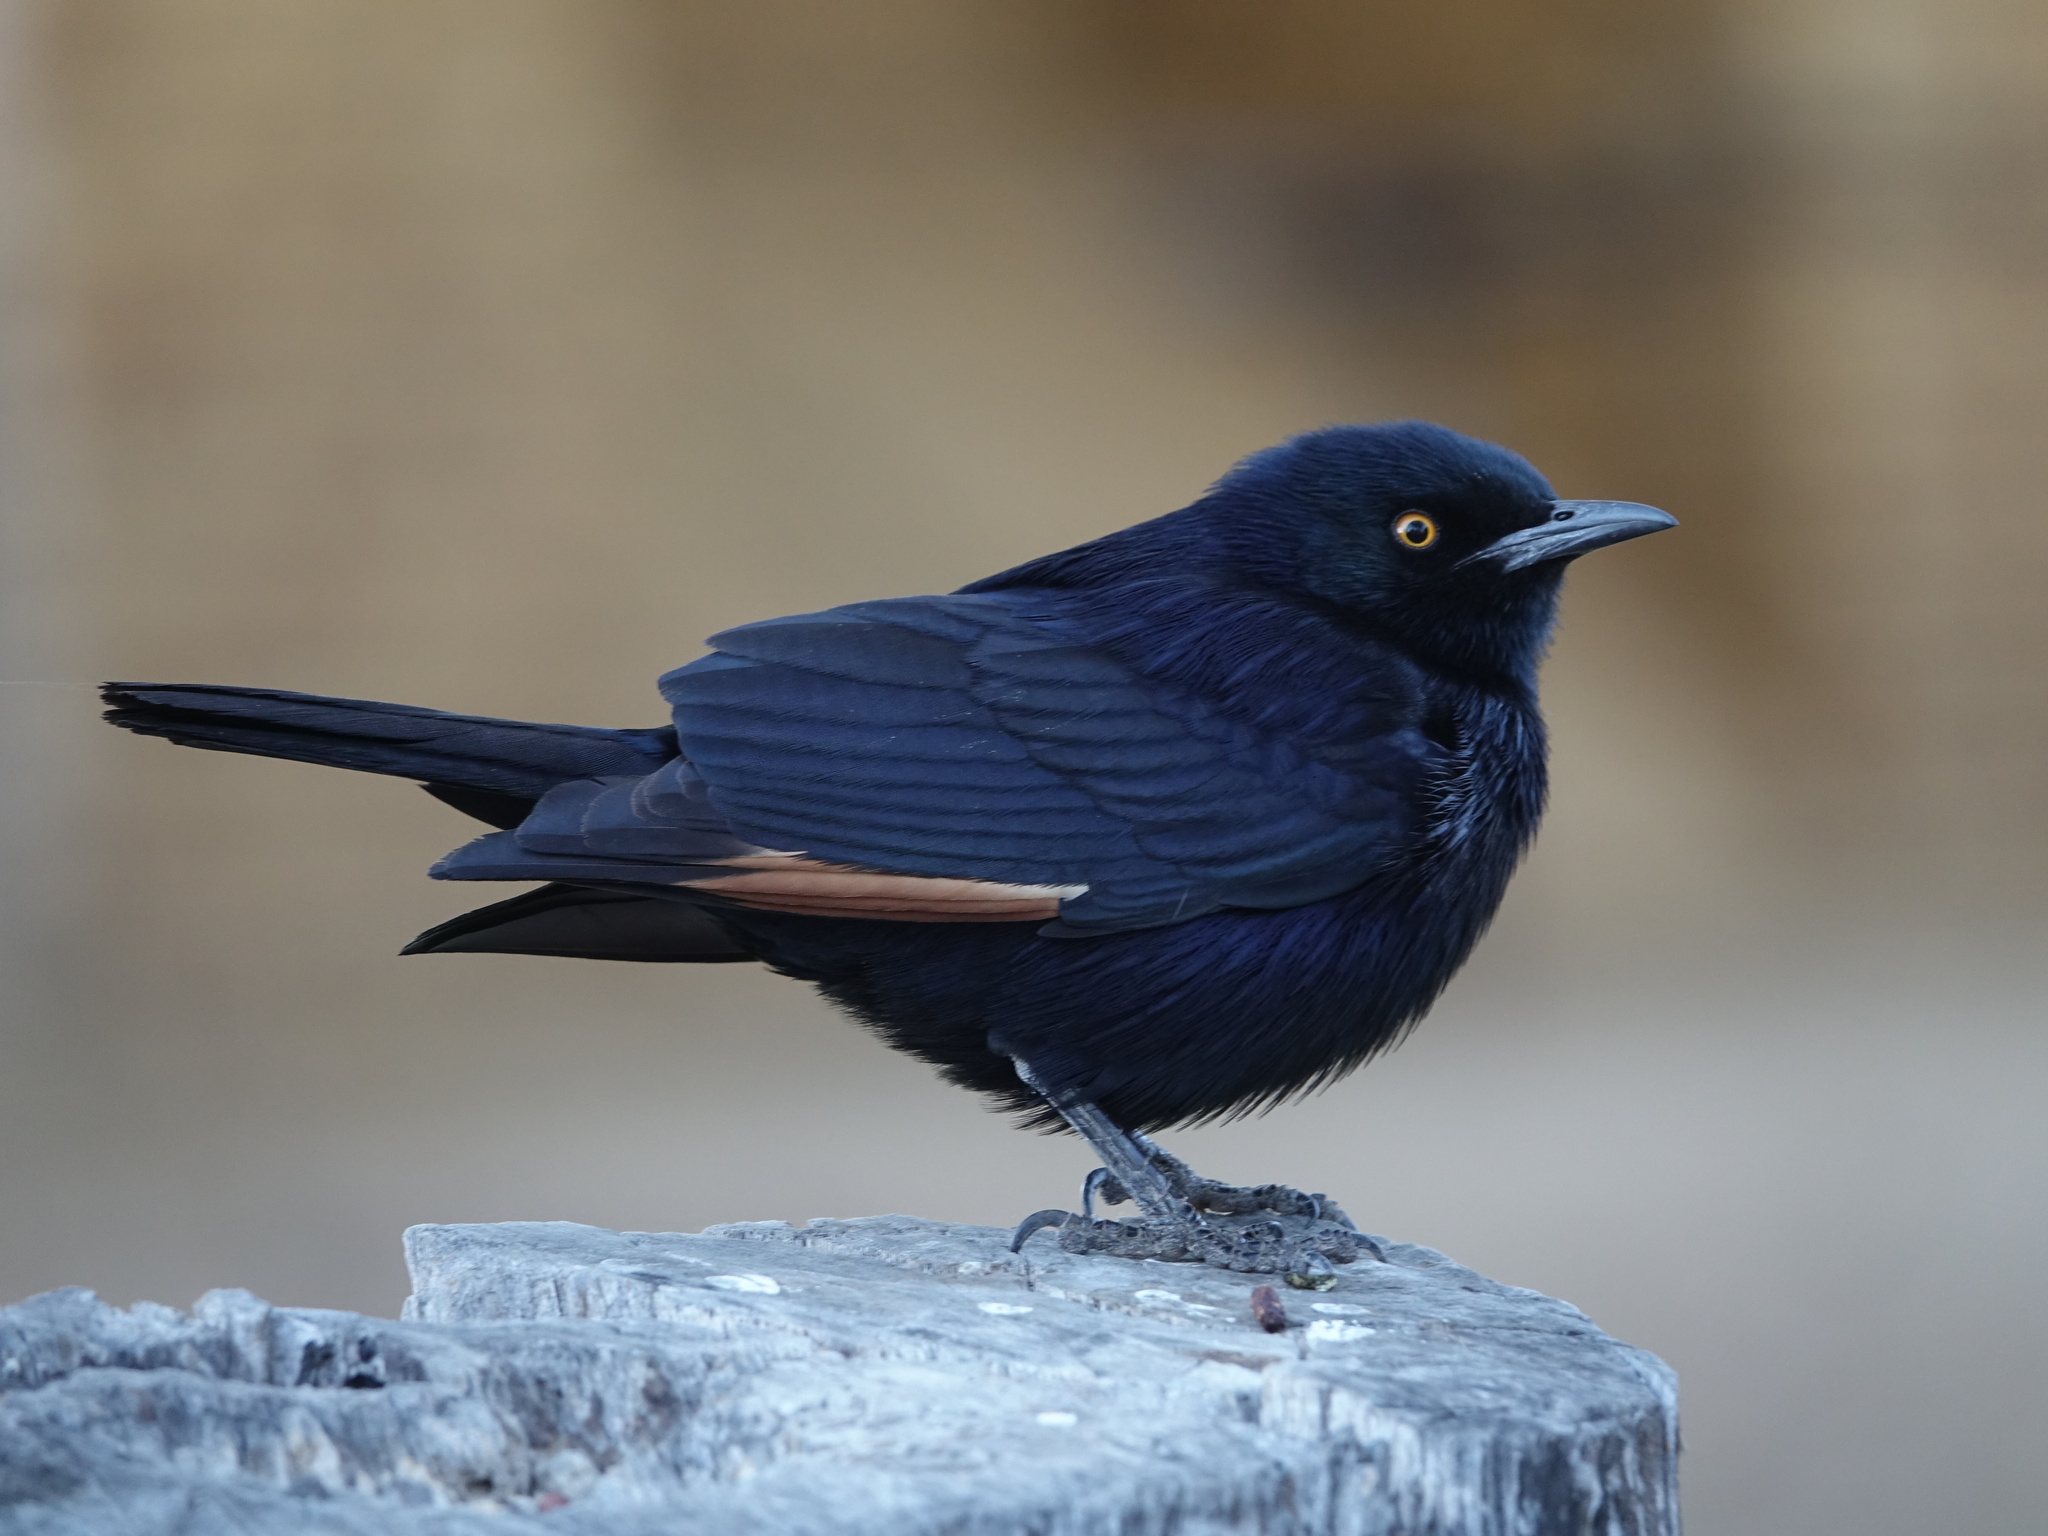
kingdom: Animalia
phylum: Chordata
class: Aves
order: Passeriformes
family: Sturnidae
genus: Onychognathus
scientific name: Onychognathus nabouroup
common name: Pale-winged starling
